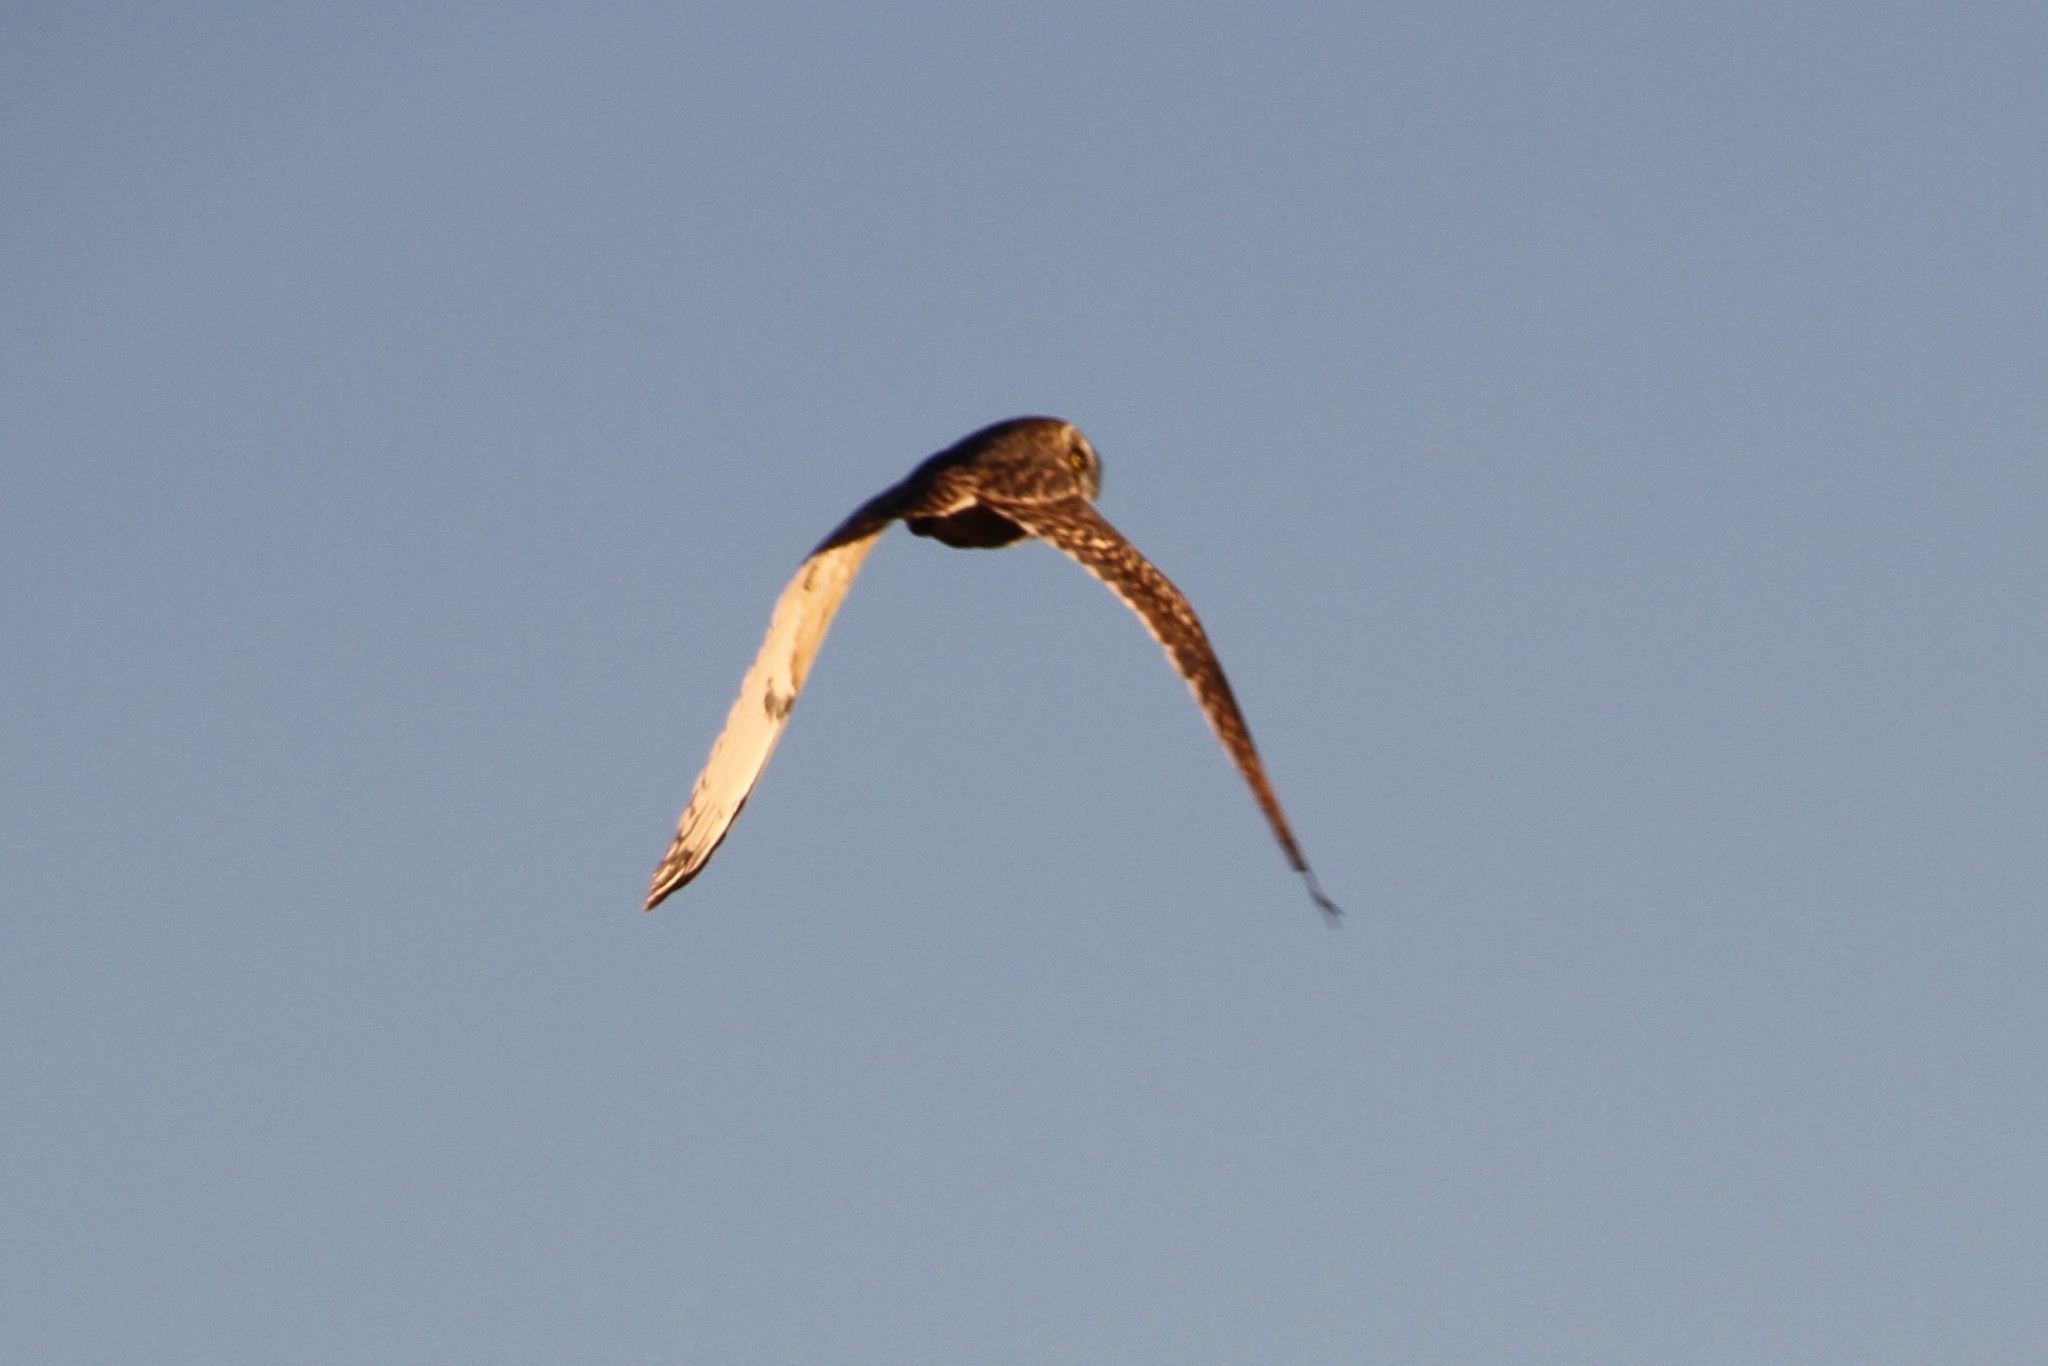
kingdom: Animalia
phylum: Chordata
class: Aves
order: Strigiformes
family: Strigidae
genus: Asio
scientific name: Asio flammeus
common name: Short-eared owl
